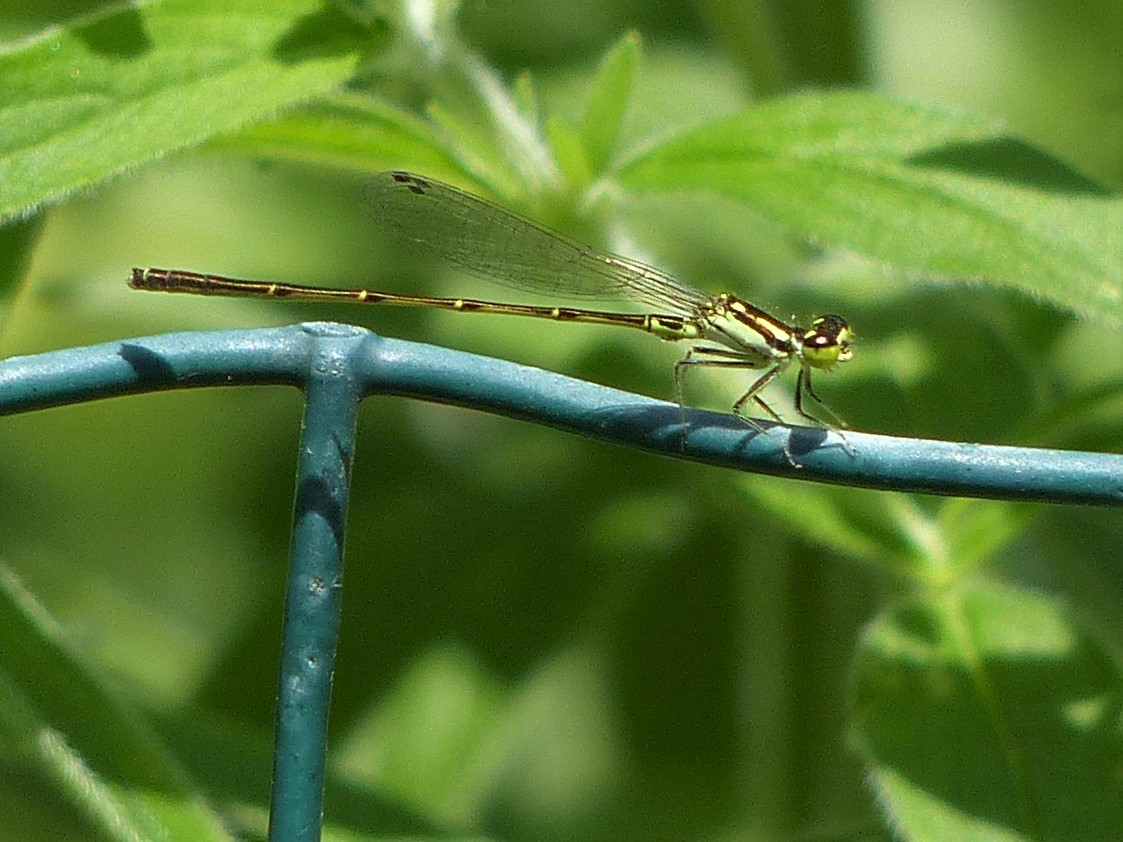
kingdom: Animalia
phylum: Arthropoda
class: Insecta
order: Odonata
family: Coenagrionidae
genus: Ischnura
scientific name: Ischnura posita
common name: Fragile forktail
